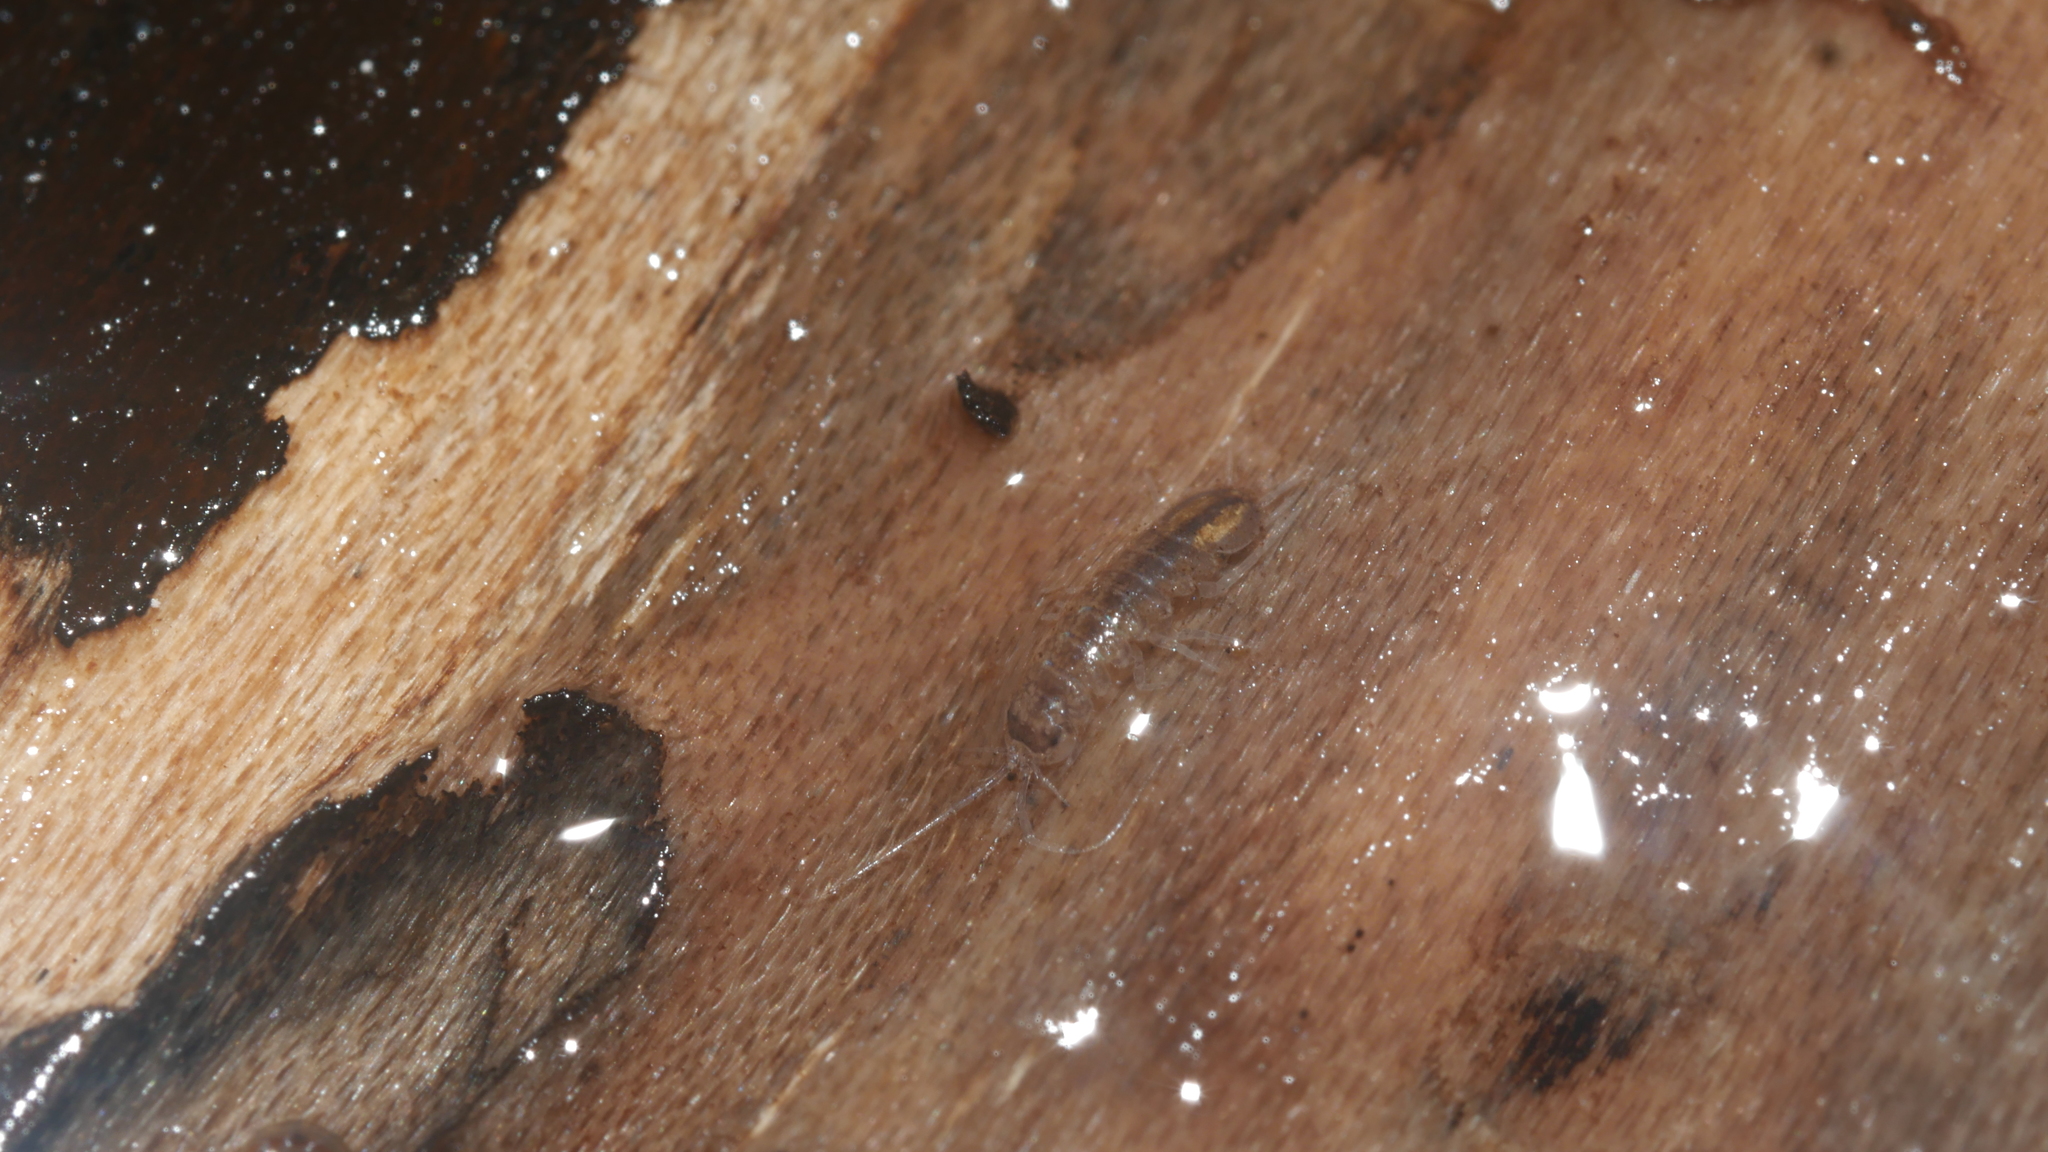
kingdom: Animalia
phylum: Arthropoda
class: Malacostraca
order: Isopoda
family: Asellidae
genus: Caecidotea
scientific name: Caecidotea nodula
